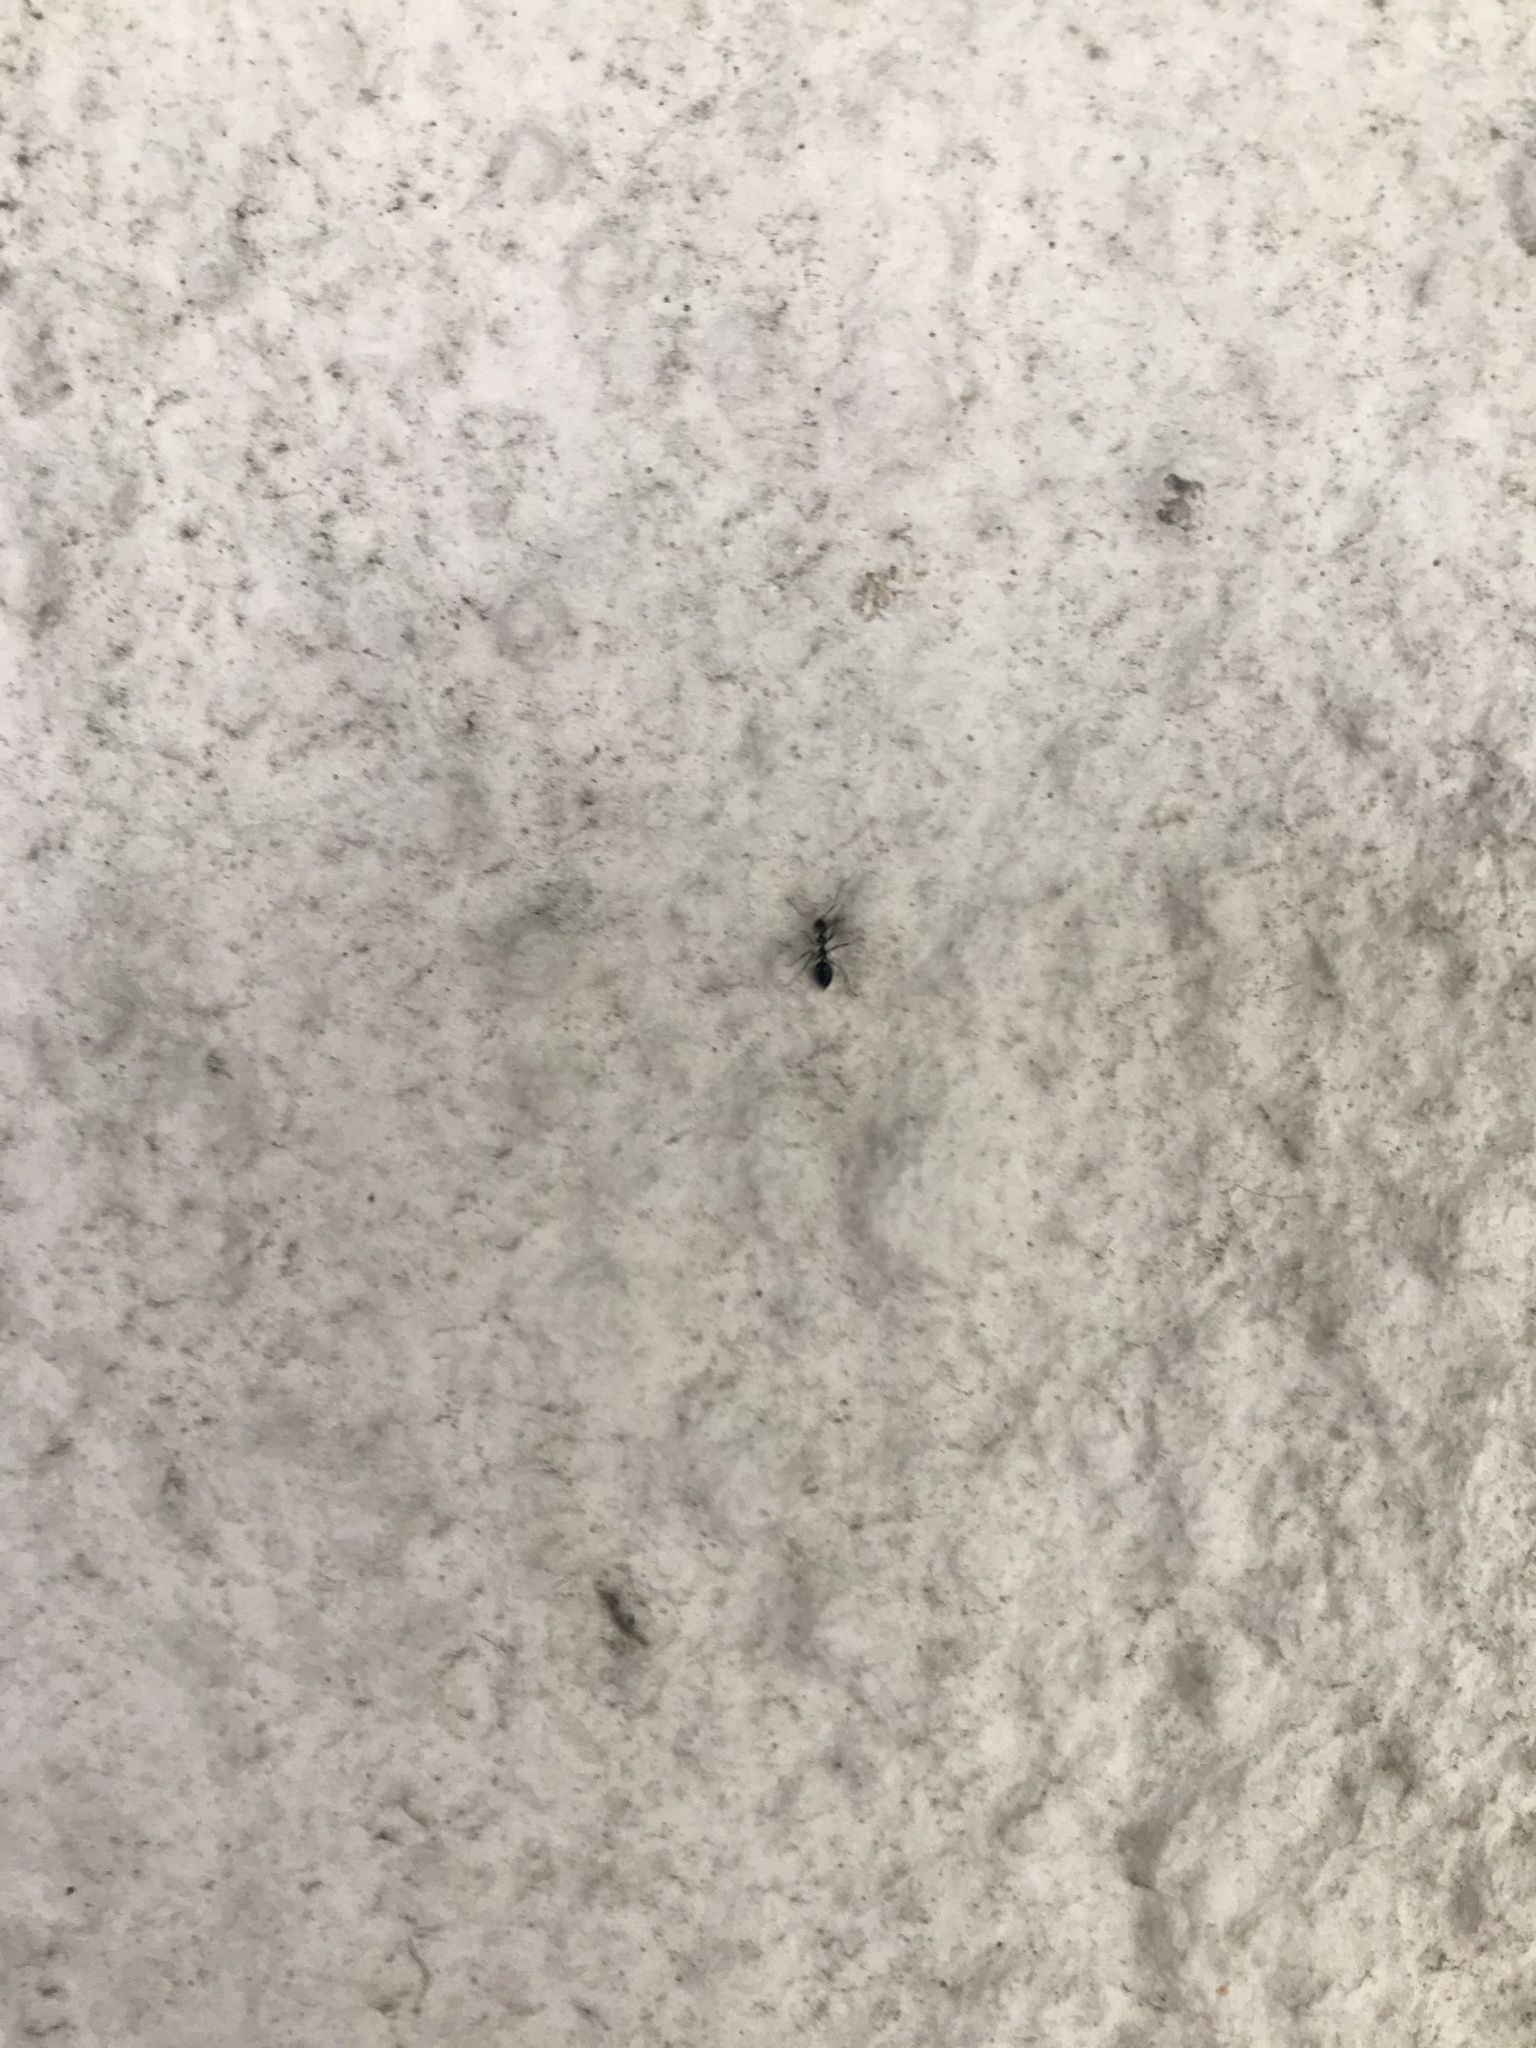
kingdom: Animalia
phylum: Arthropoda
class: Insecta
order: Hymenoptera
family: Formicidae
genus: Lepisiota
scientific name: Lepisiota capensis
